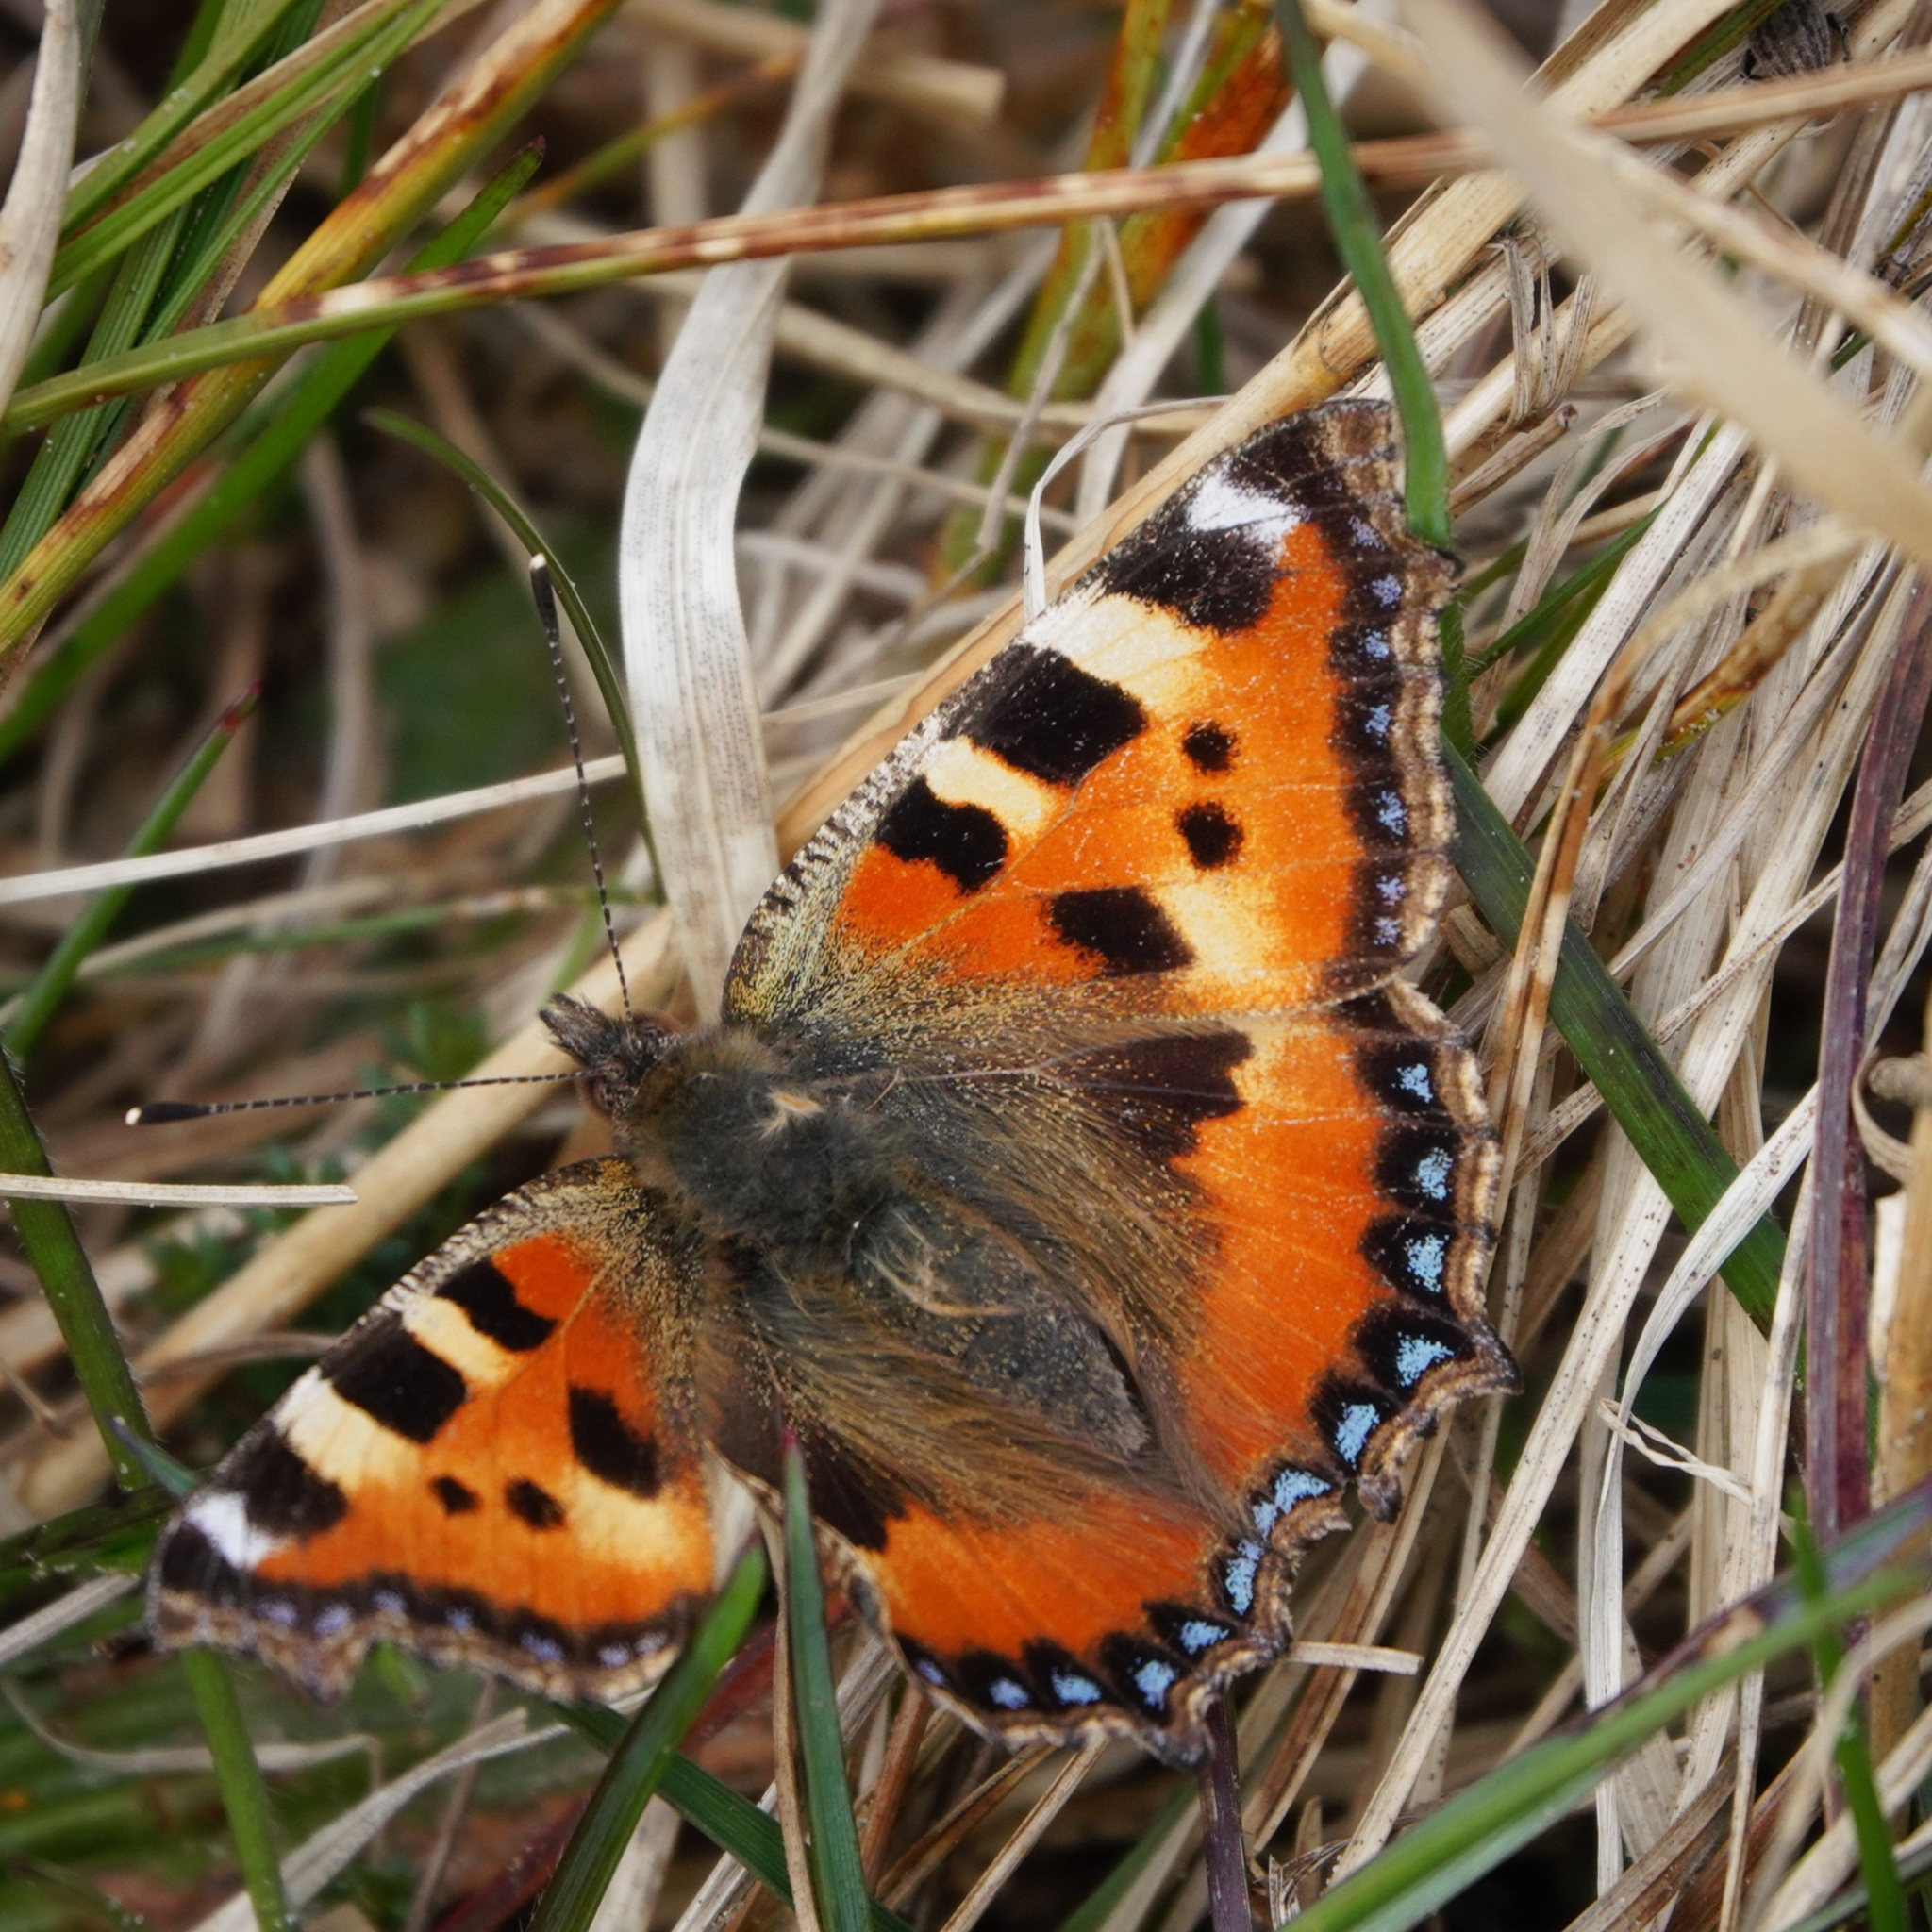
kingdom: Animalia
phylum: Arthropoda
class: Insecta
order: Lepidoptera
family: Nymphalidae
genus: Aglais
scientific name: Aglais urticae
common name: Small tortoiseshell
